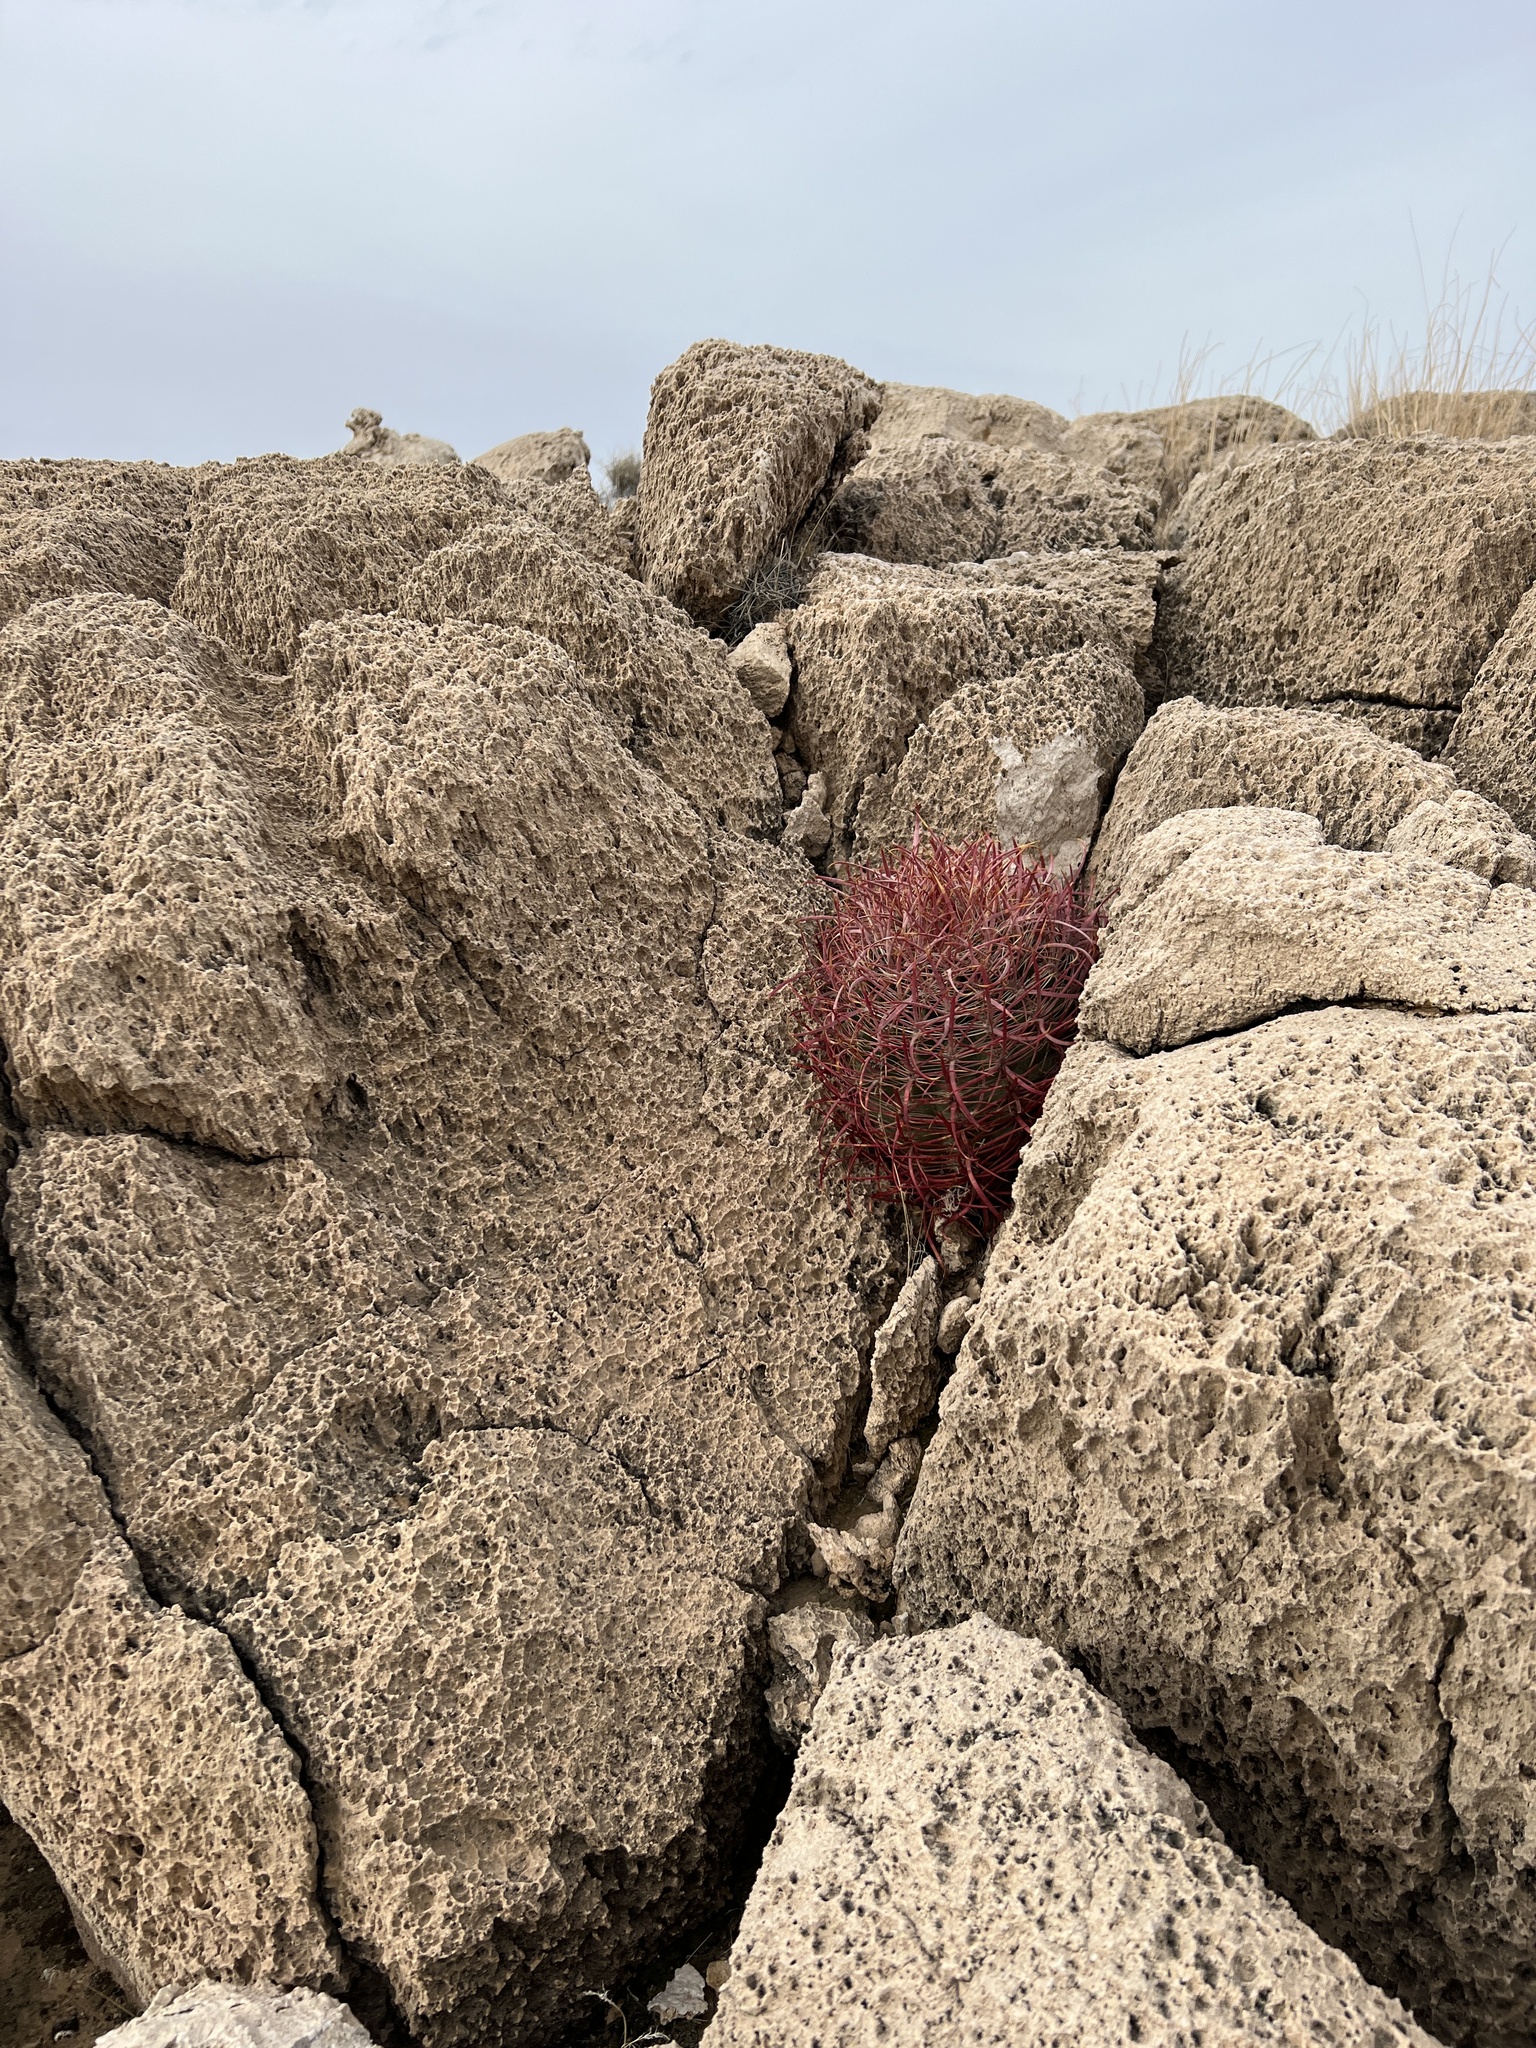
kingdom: Plantae
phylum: Tracheophyta
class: Magnoliopsida
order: Caryophyllales
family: Cactaceae
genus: Ferocactus
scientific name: Ferocactus cylindraceus
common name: California barrel cactus
